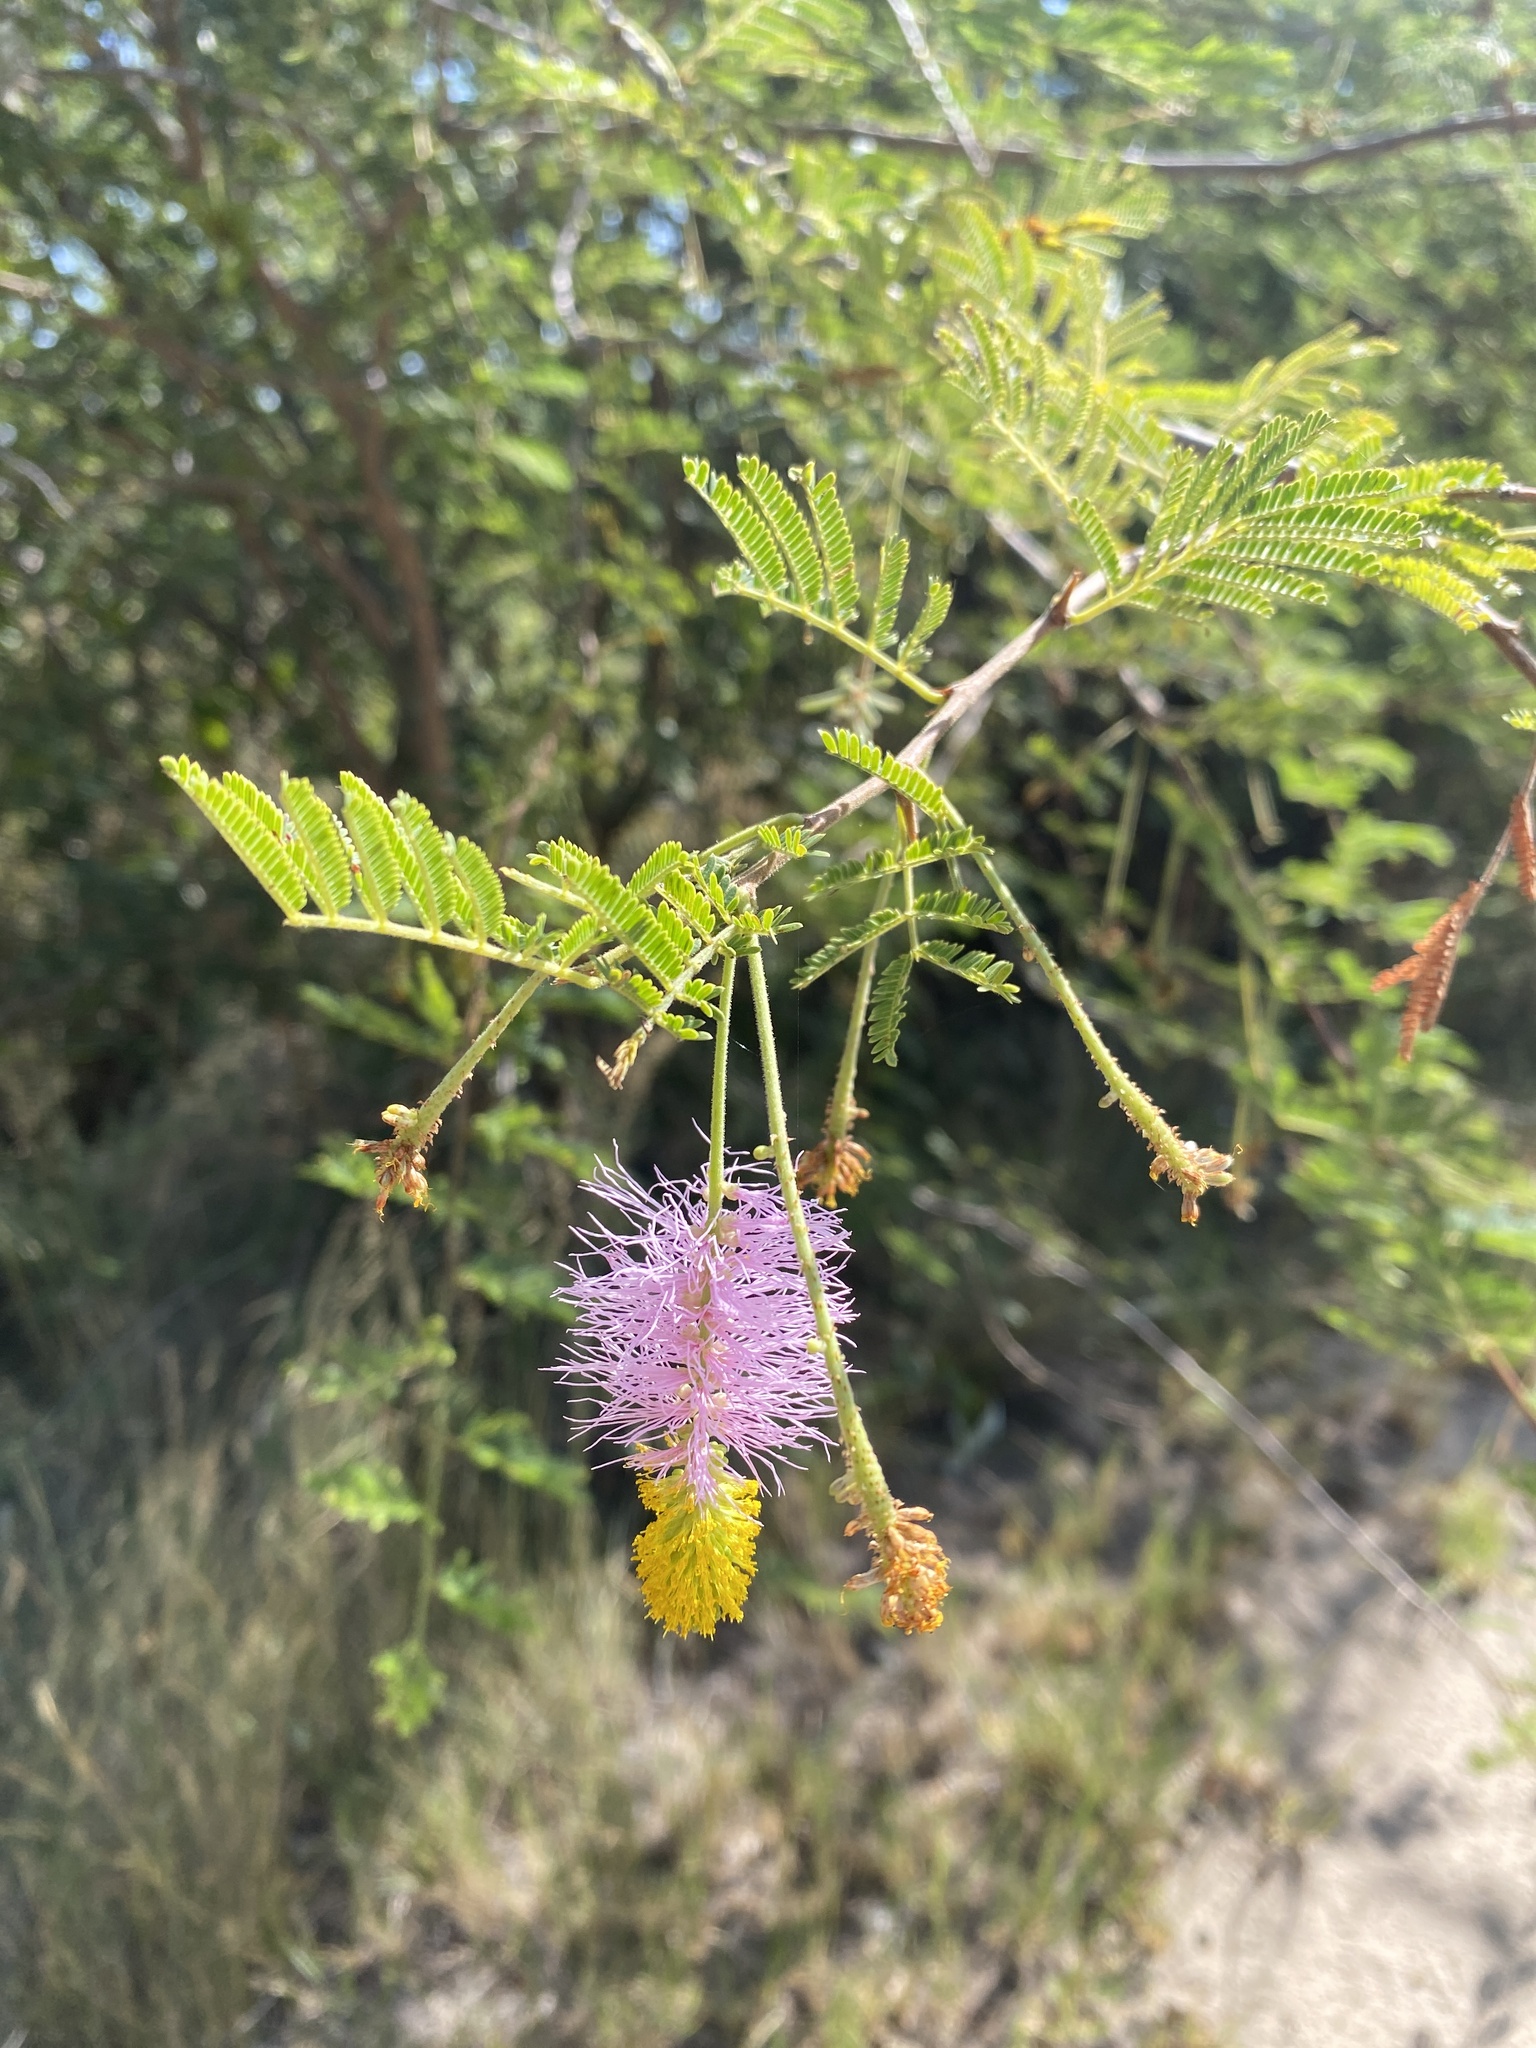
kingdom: Plantae
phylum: Tracheophyta
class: Magnoliopsida
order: Fabales
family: Fabaceae
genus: Dichrostachys
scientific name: Dichrostachys cinerea
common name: Sicklebush
